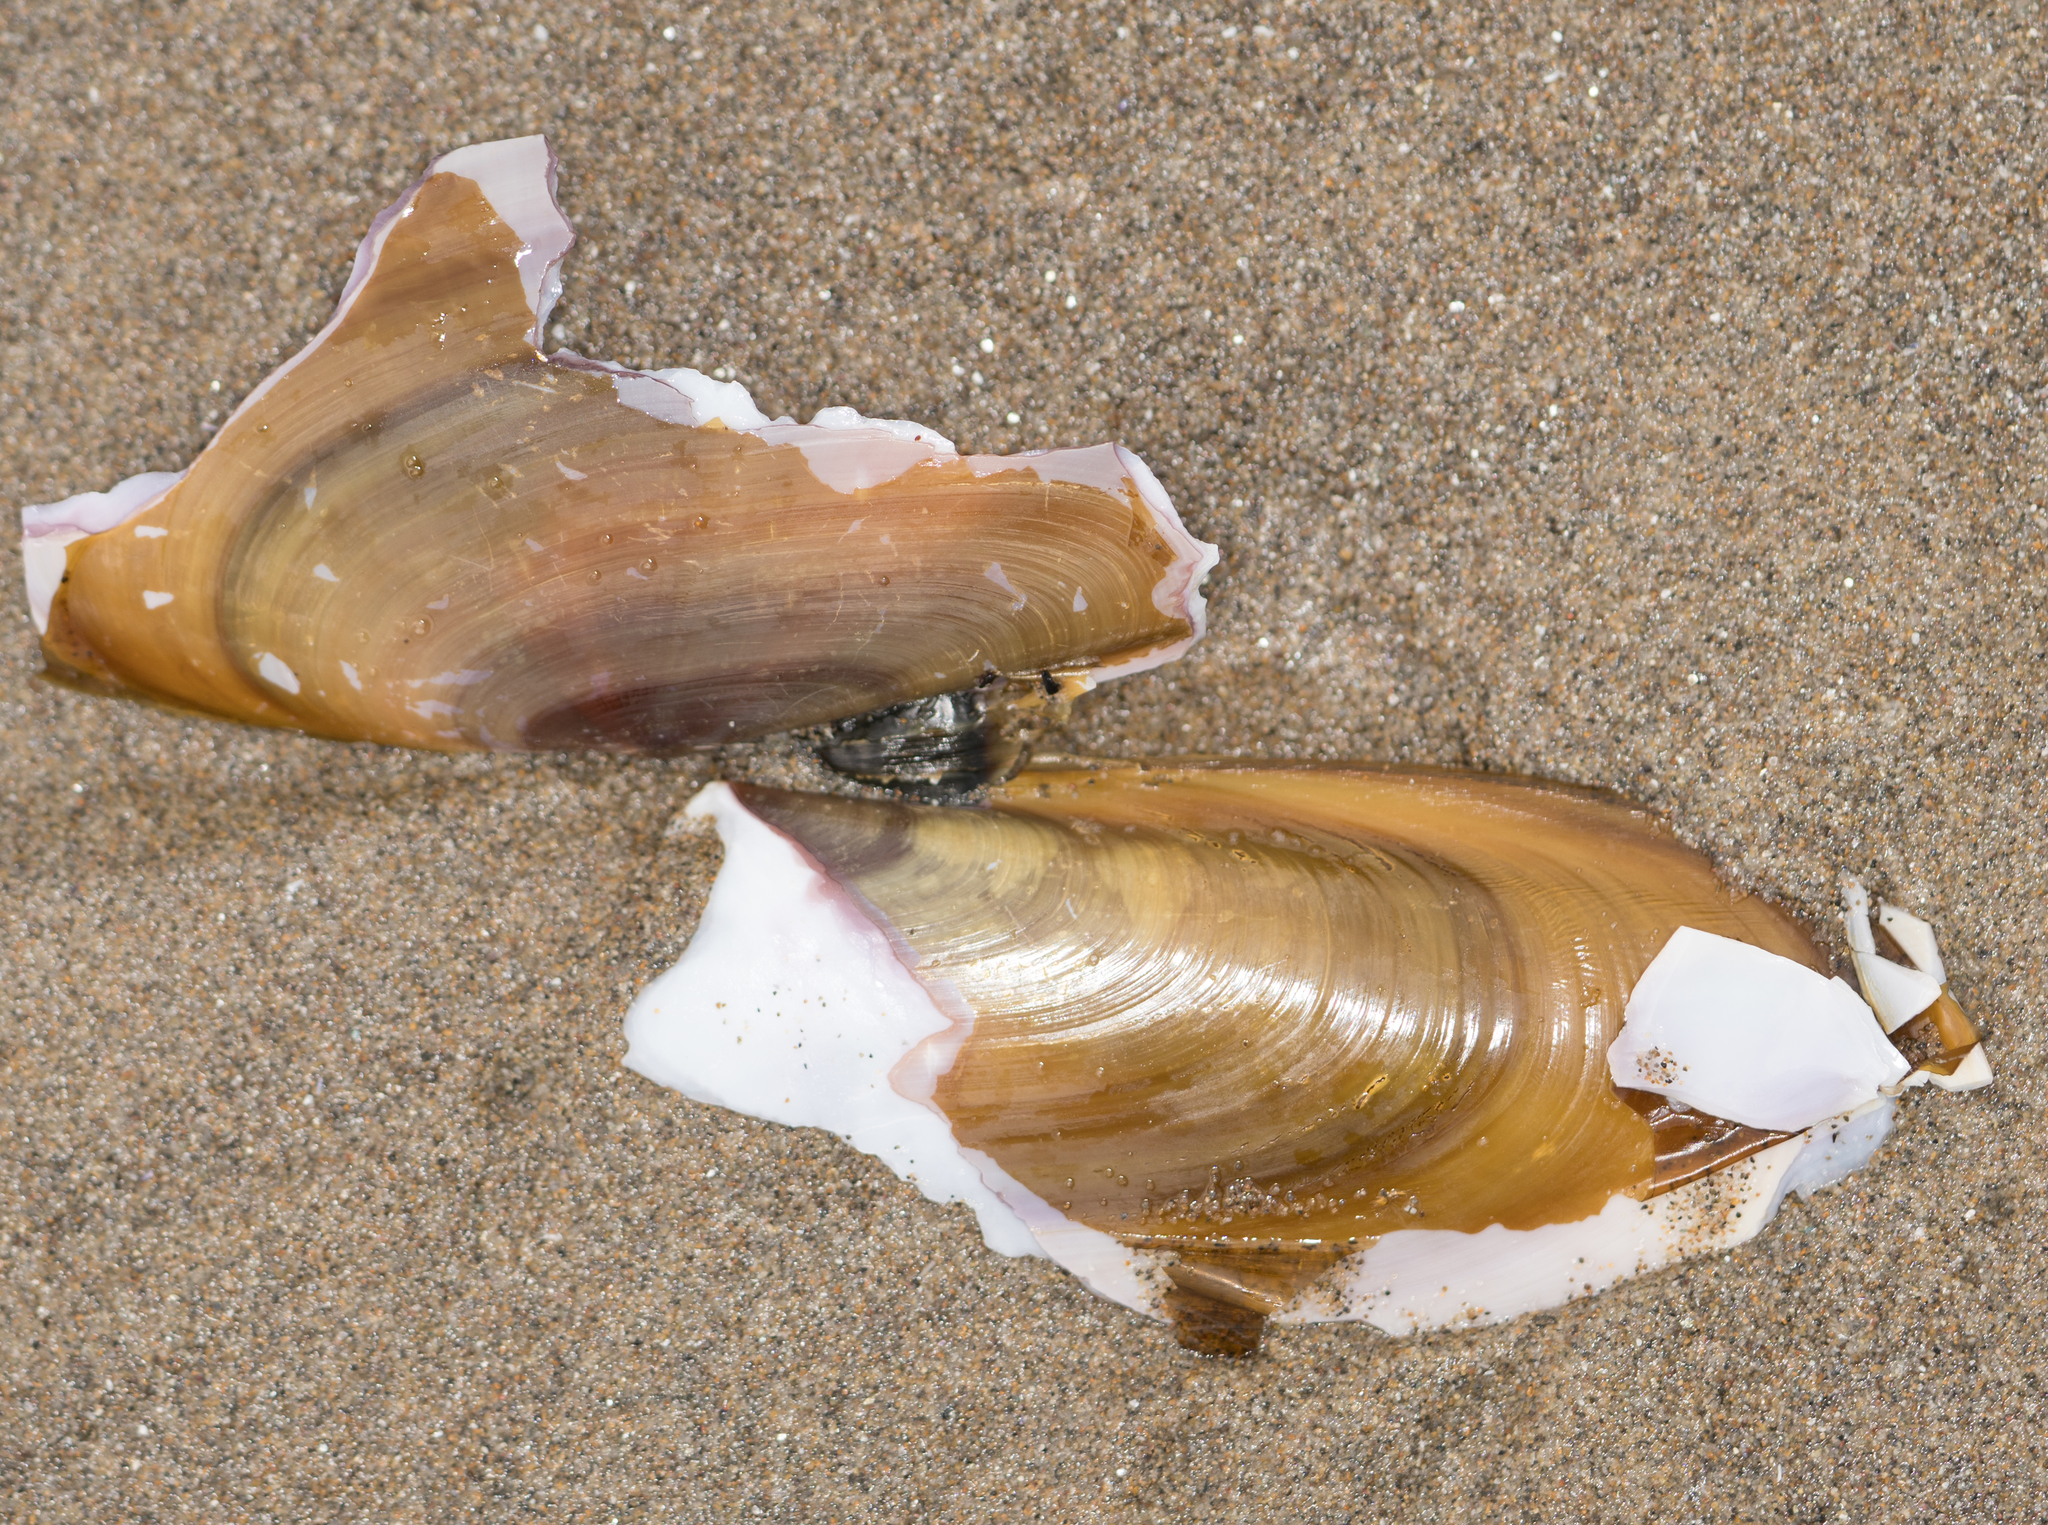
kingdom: Animalia
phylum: Mollusca
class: Bivalvia
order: Adapedonta
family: Pharidae
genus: Siliqua
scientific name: Siliqua patula
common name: Pacific razor clam
